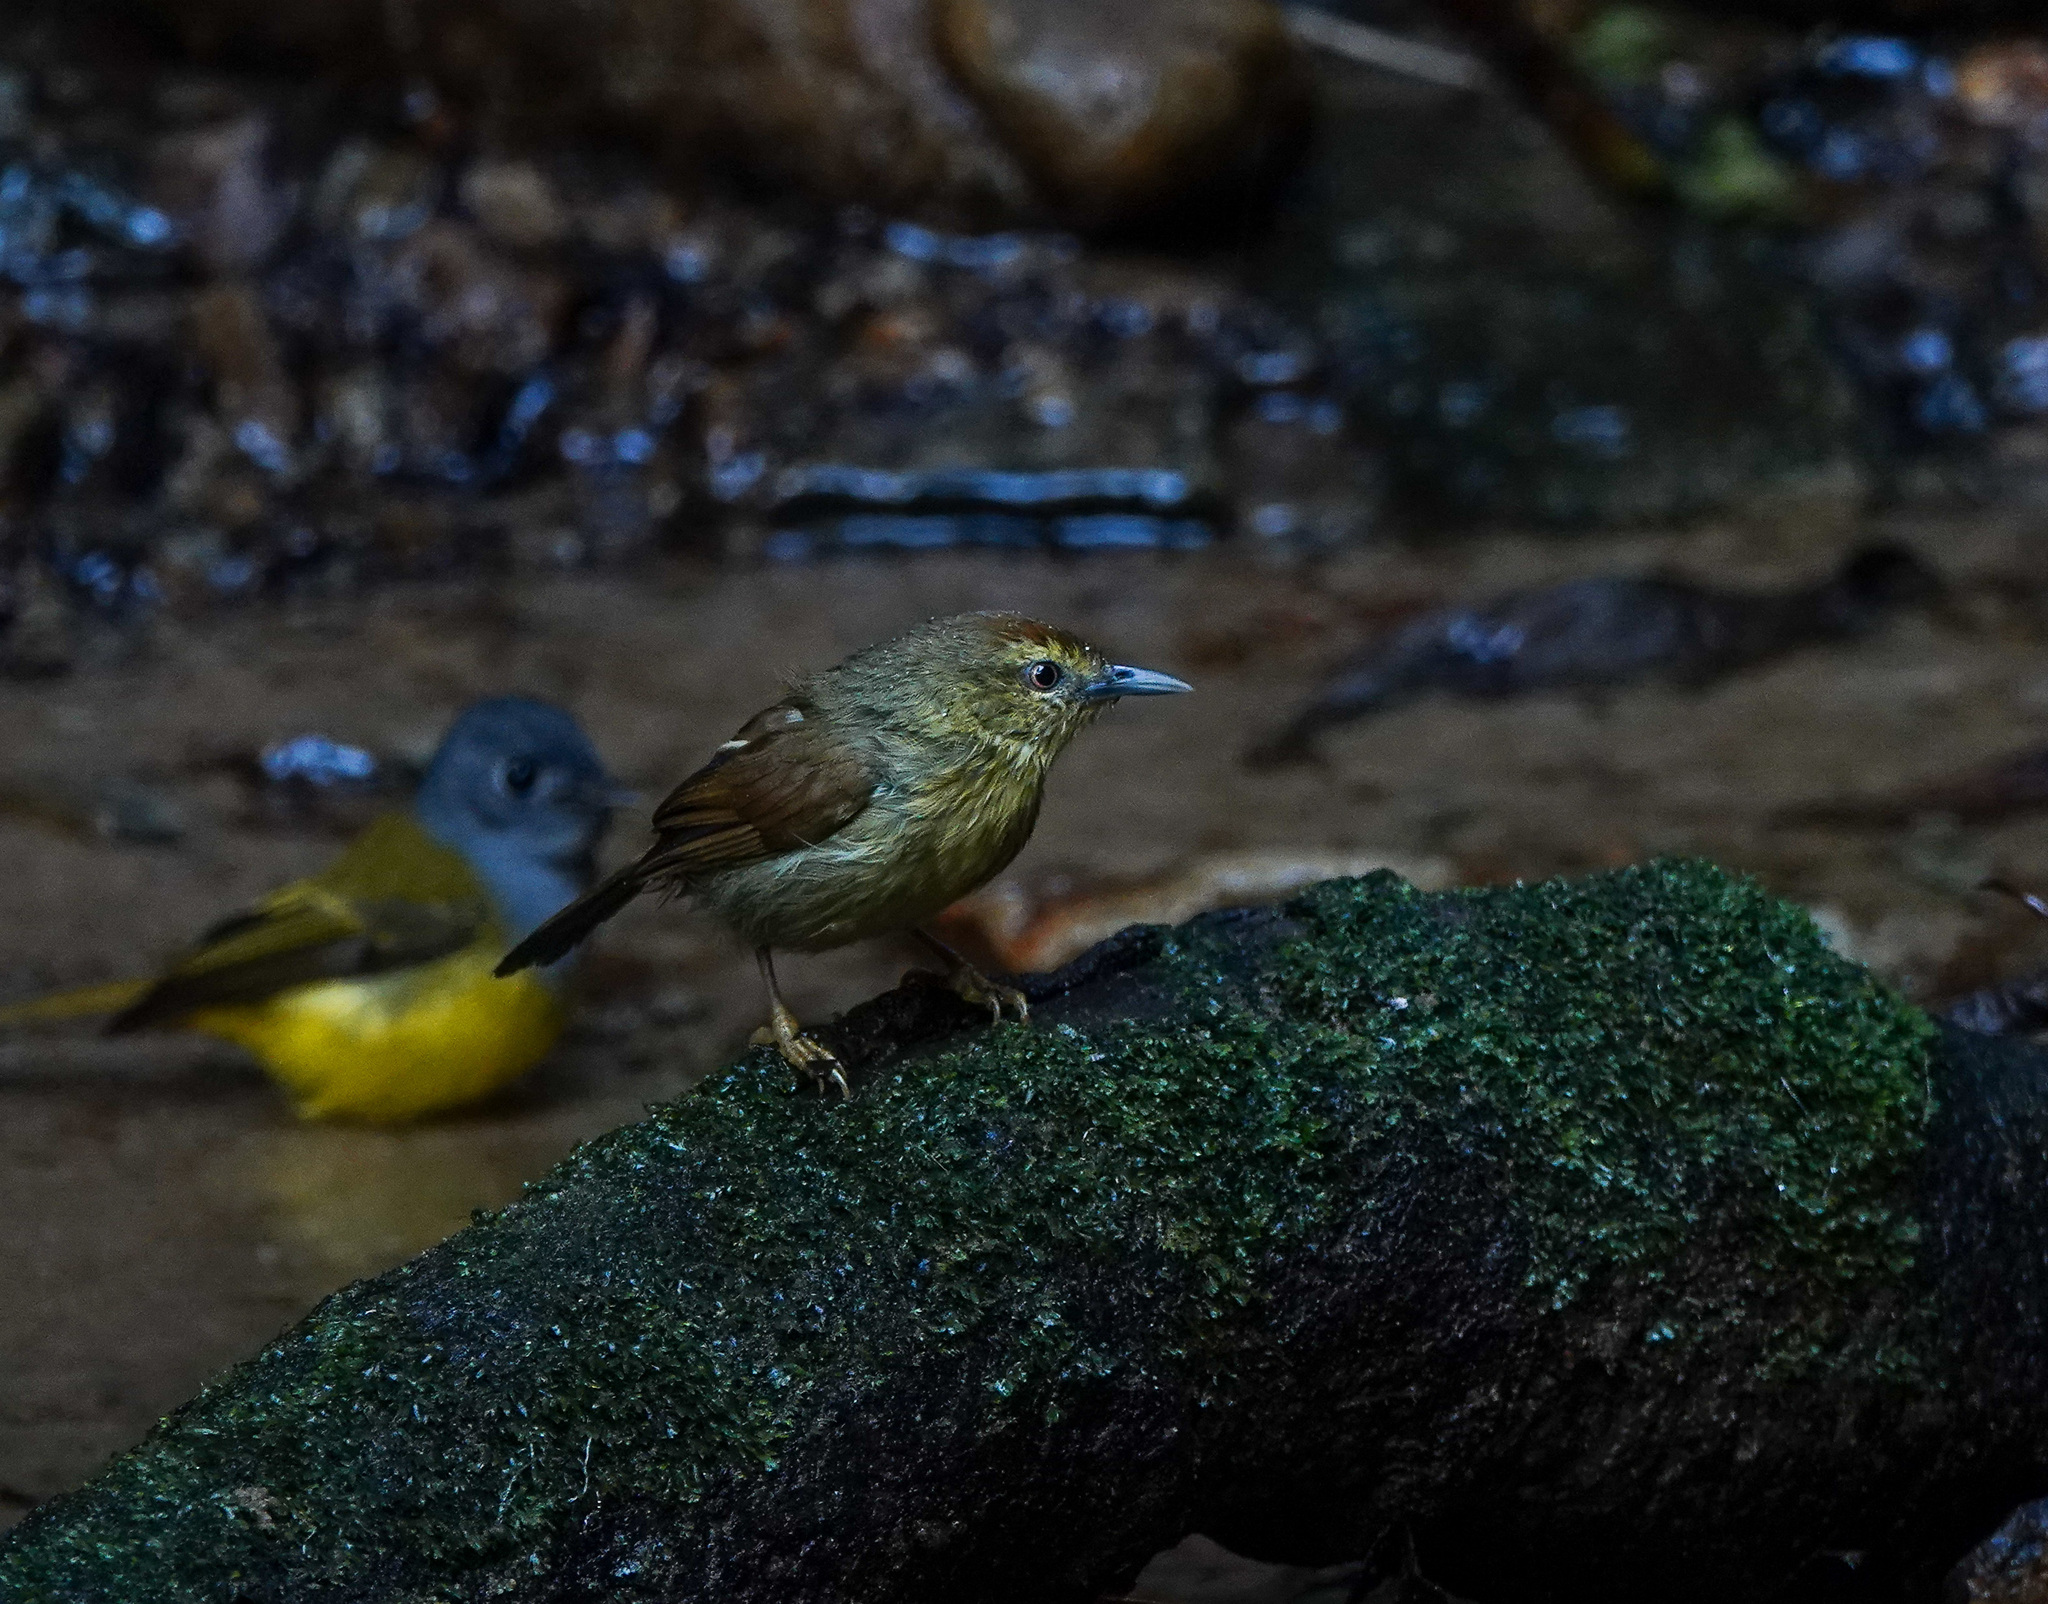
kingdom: Animalia
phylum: Chordata
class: Aves
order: Passeriformes
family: Timaliidae
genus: Macronus
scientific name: Macronus gularis
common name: Striped tit-babbler
